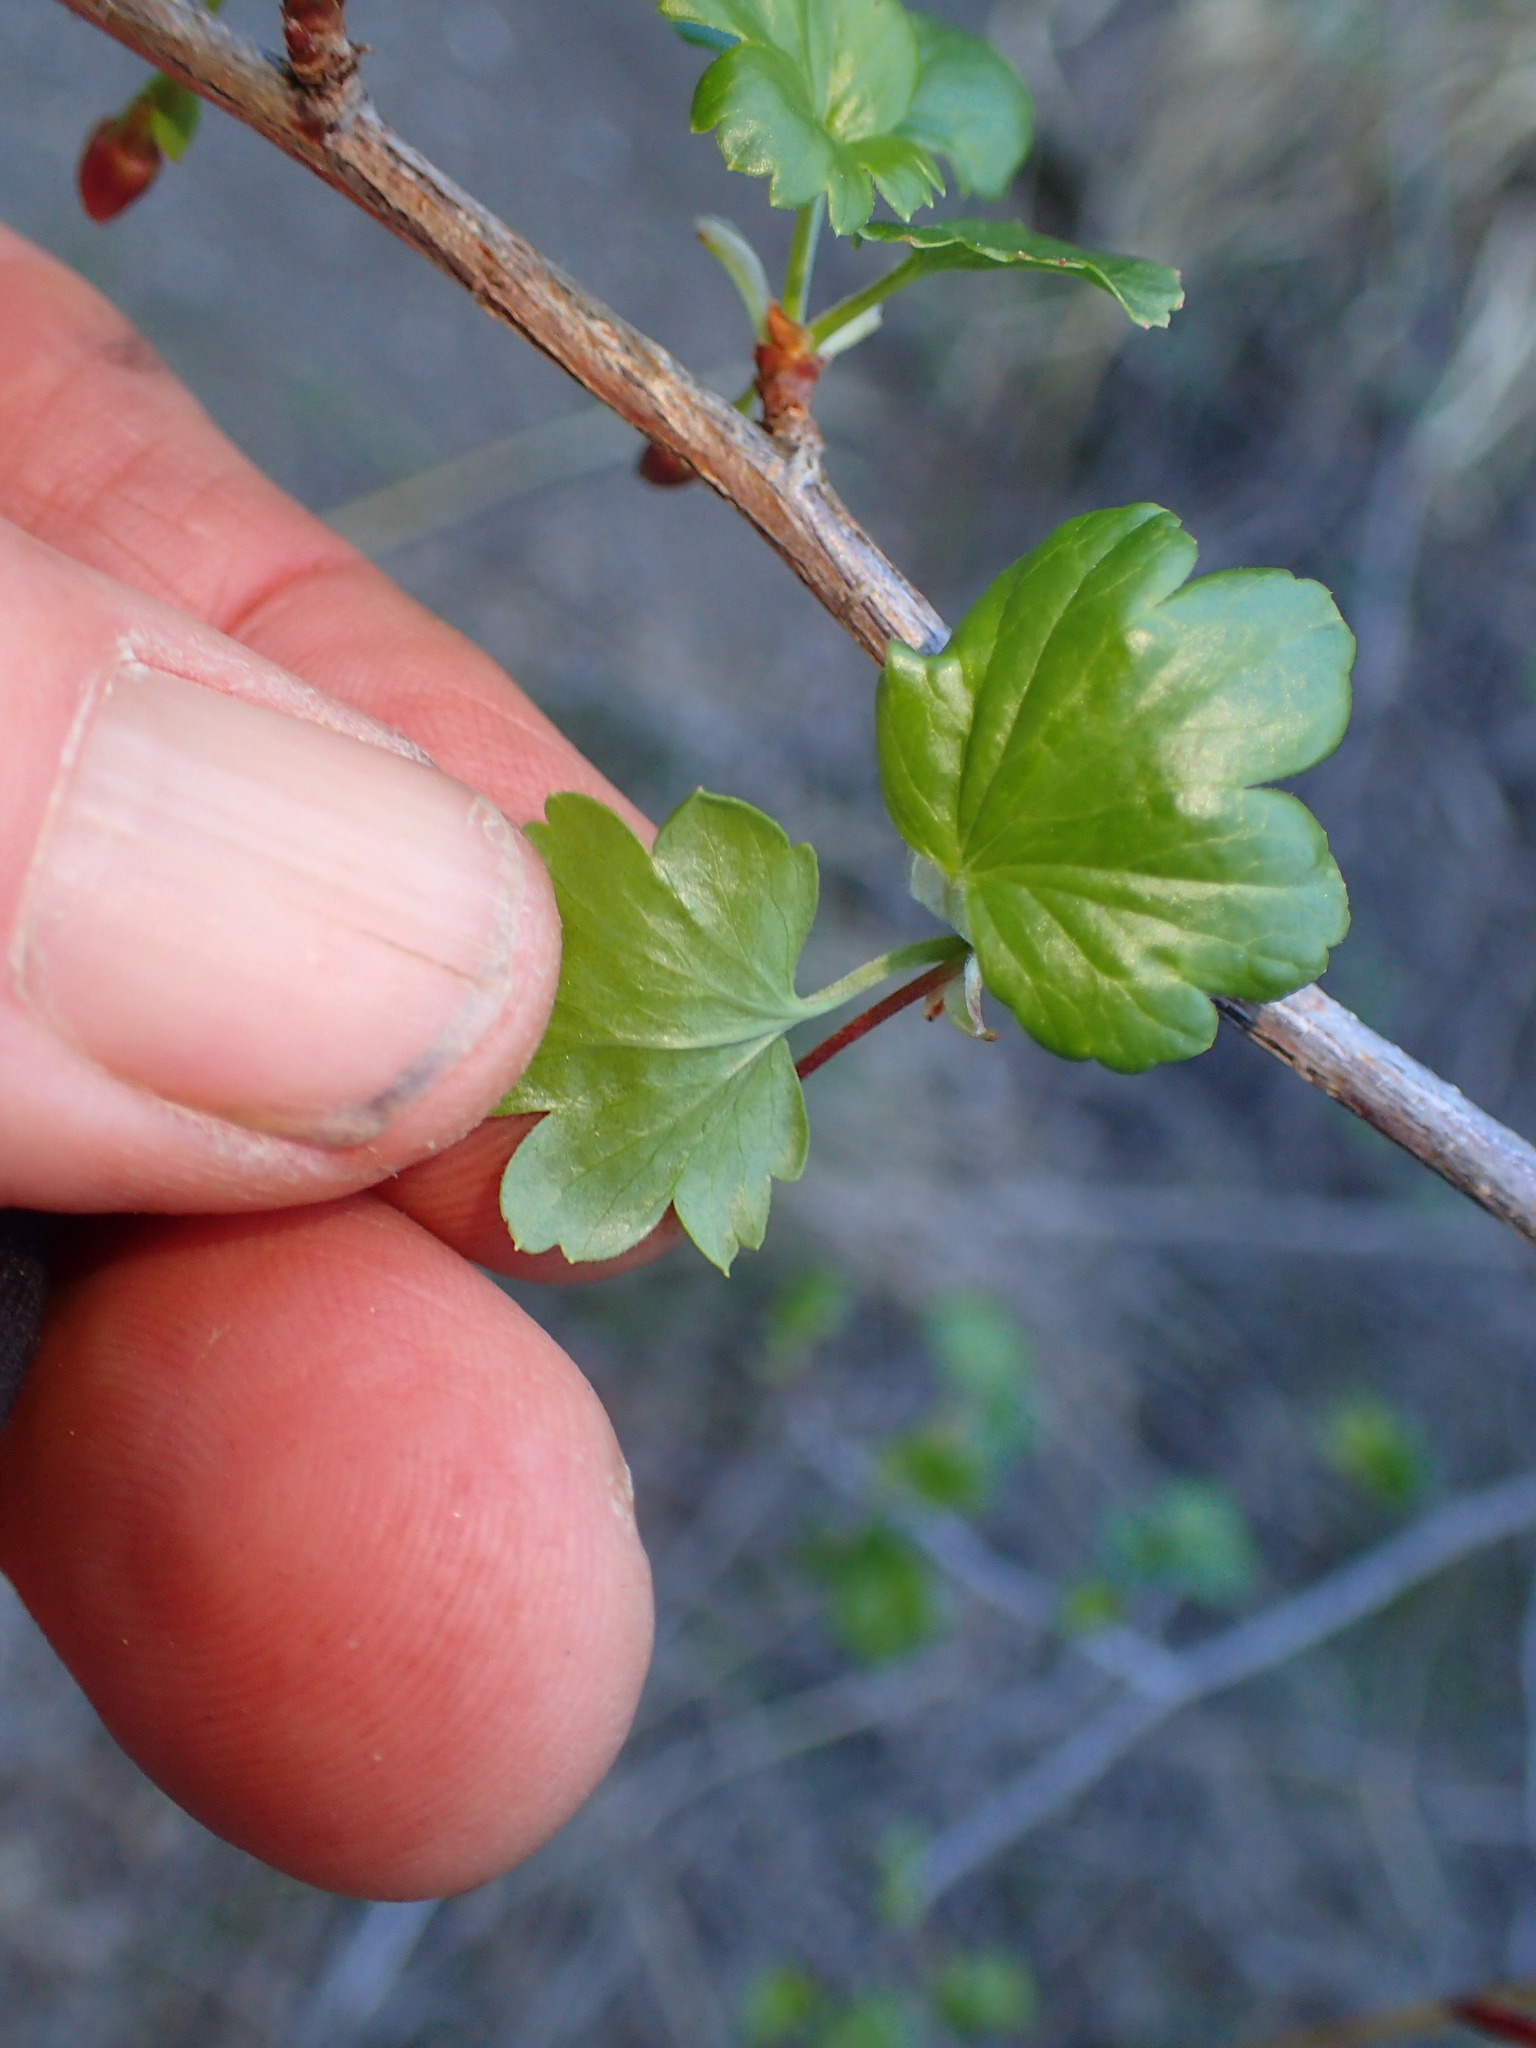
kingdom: Plantae
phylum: Tracheophyta
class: Magnoliopsida
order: Saxifragales
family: Grossulariaceae
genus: Ribes
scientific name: Ribes californicum
